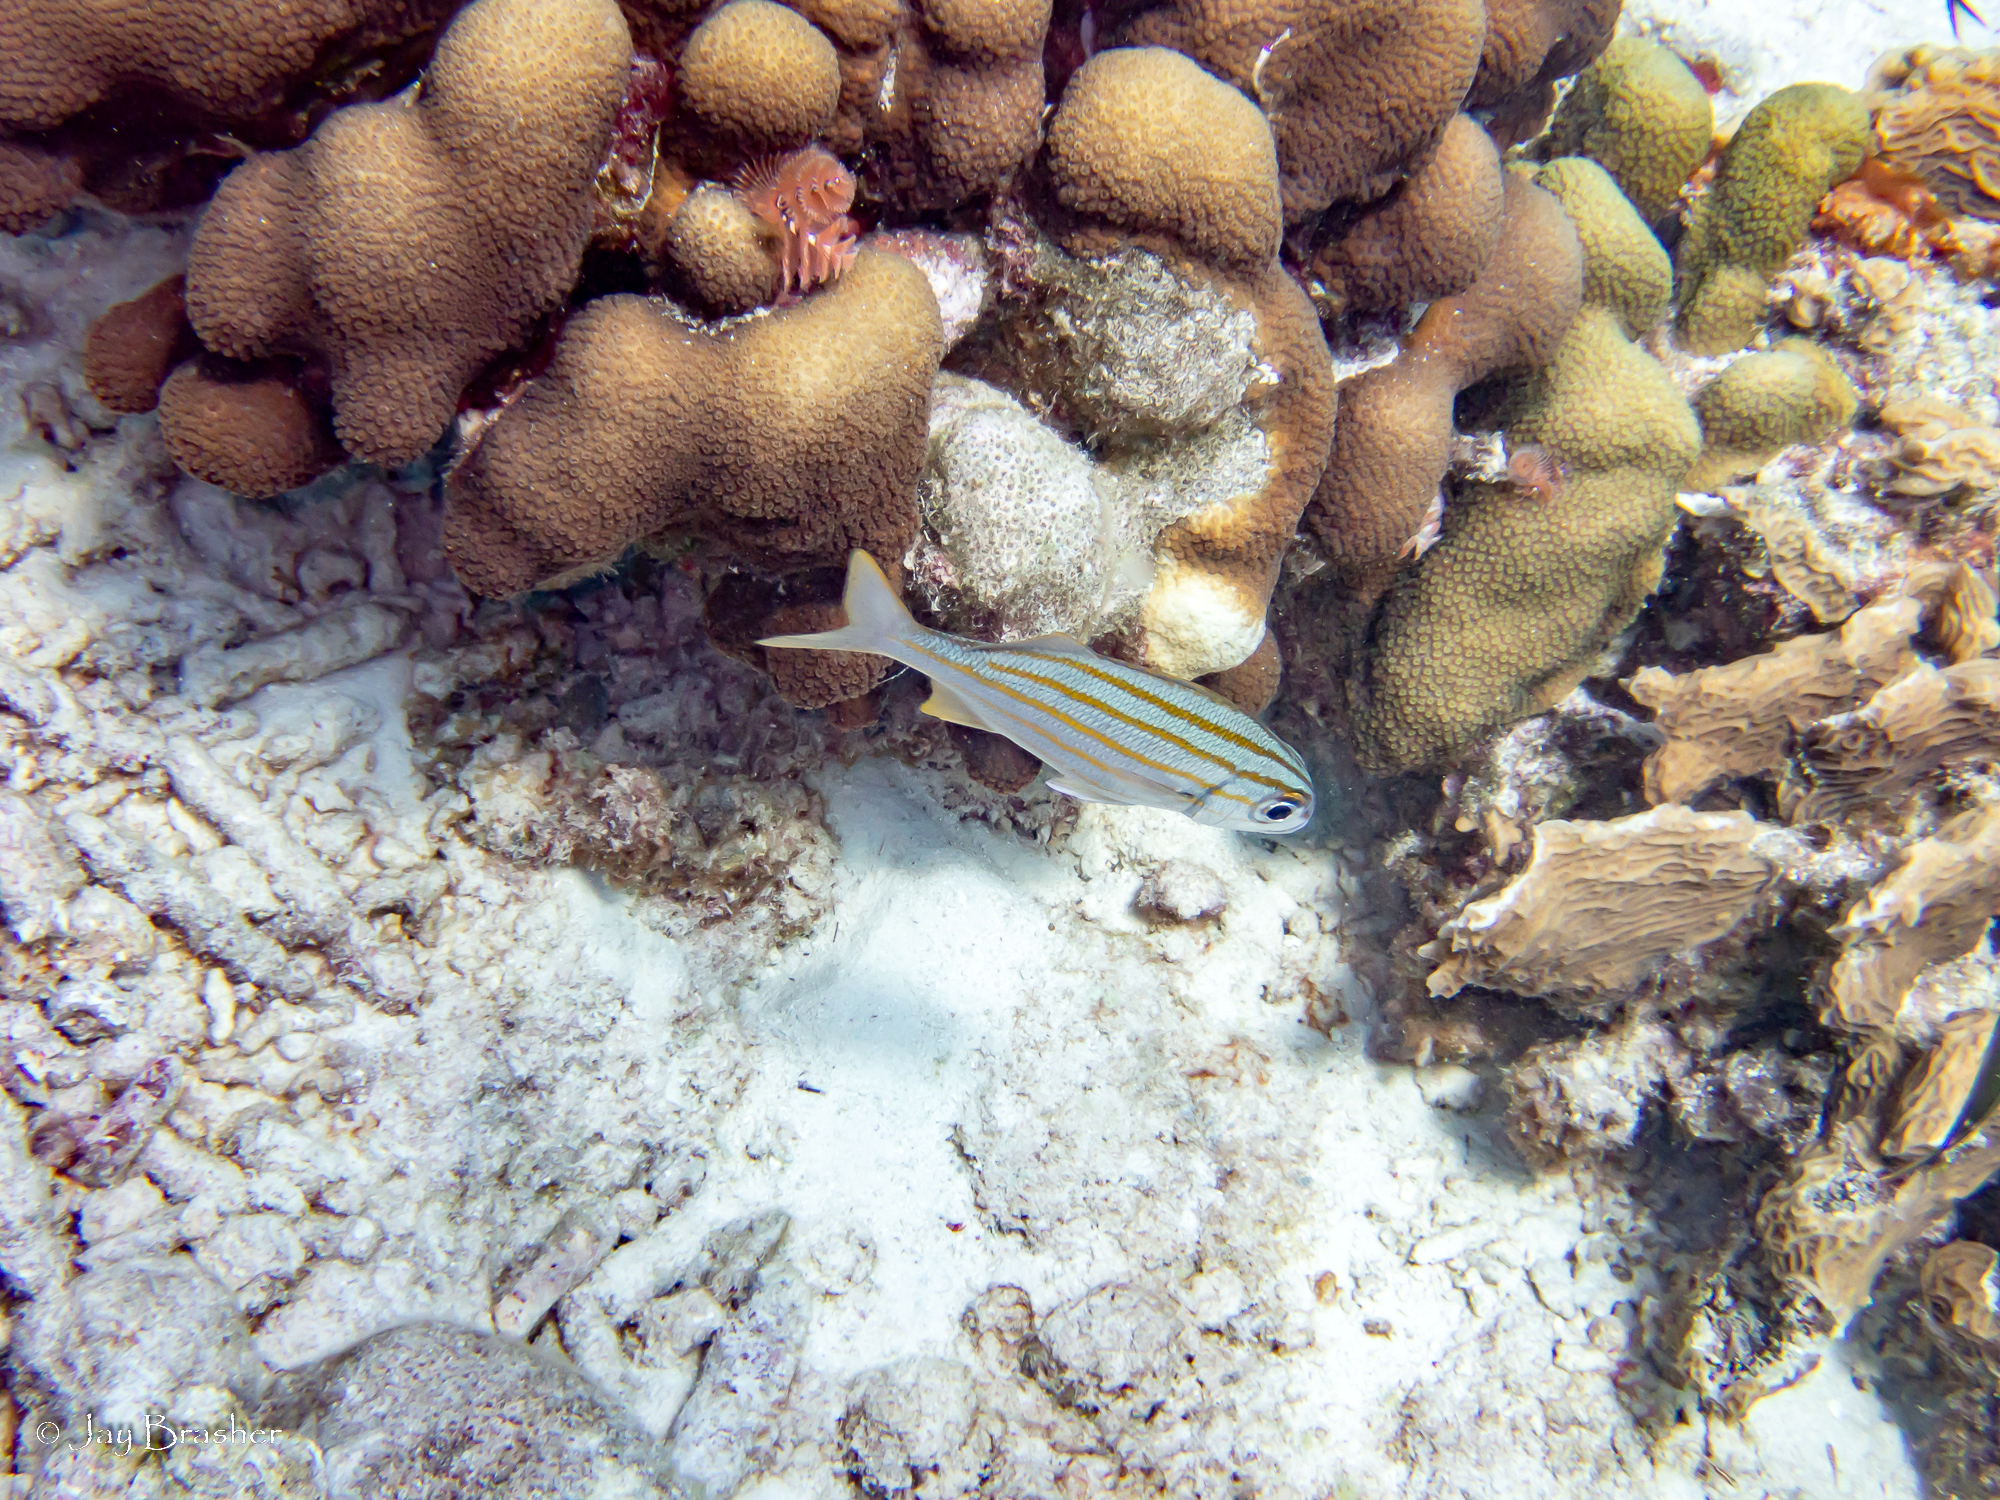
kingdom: Animalia
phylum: Chordata
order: Perciformes
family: Haemulidae
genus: Haemulon
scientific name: Haemulon chrysargyreum
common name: Smallmouth grunt
